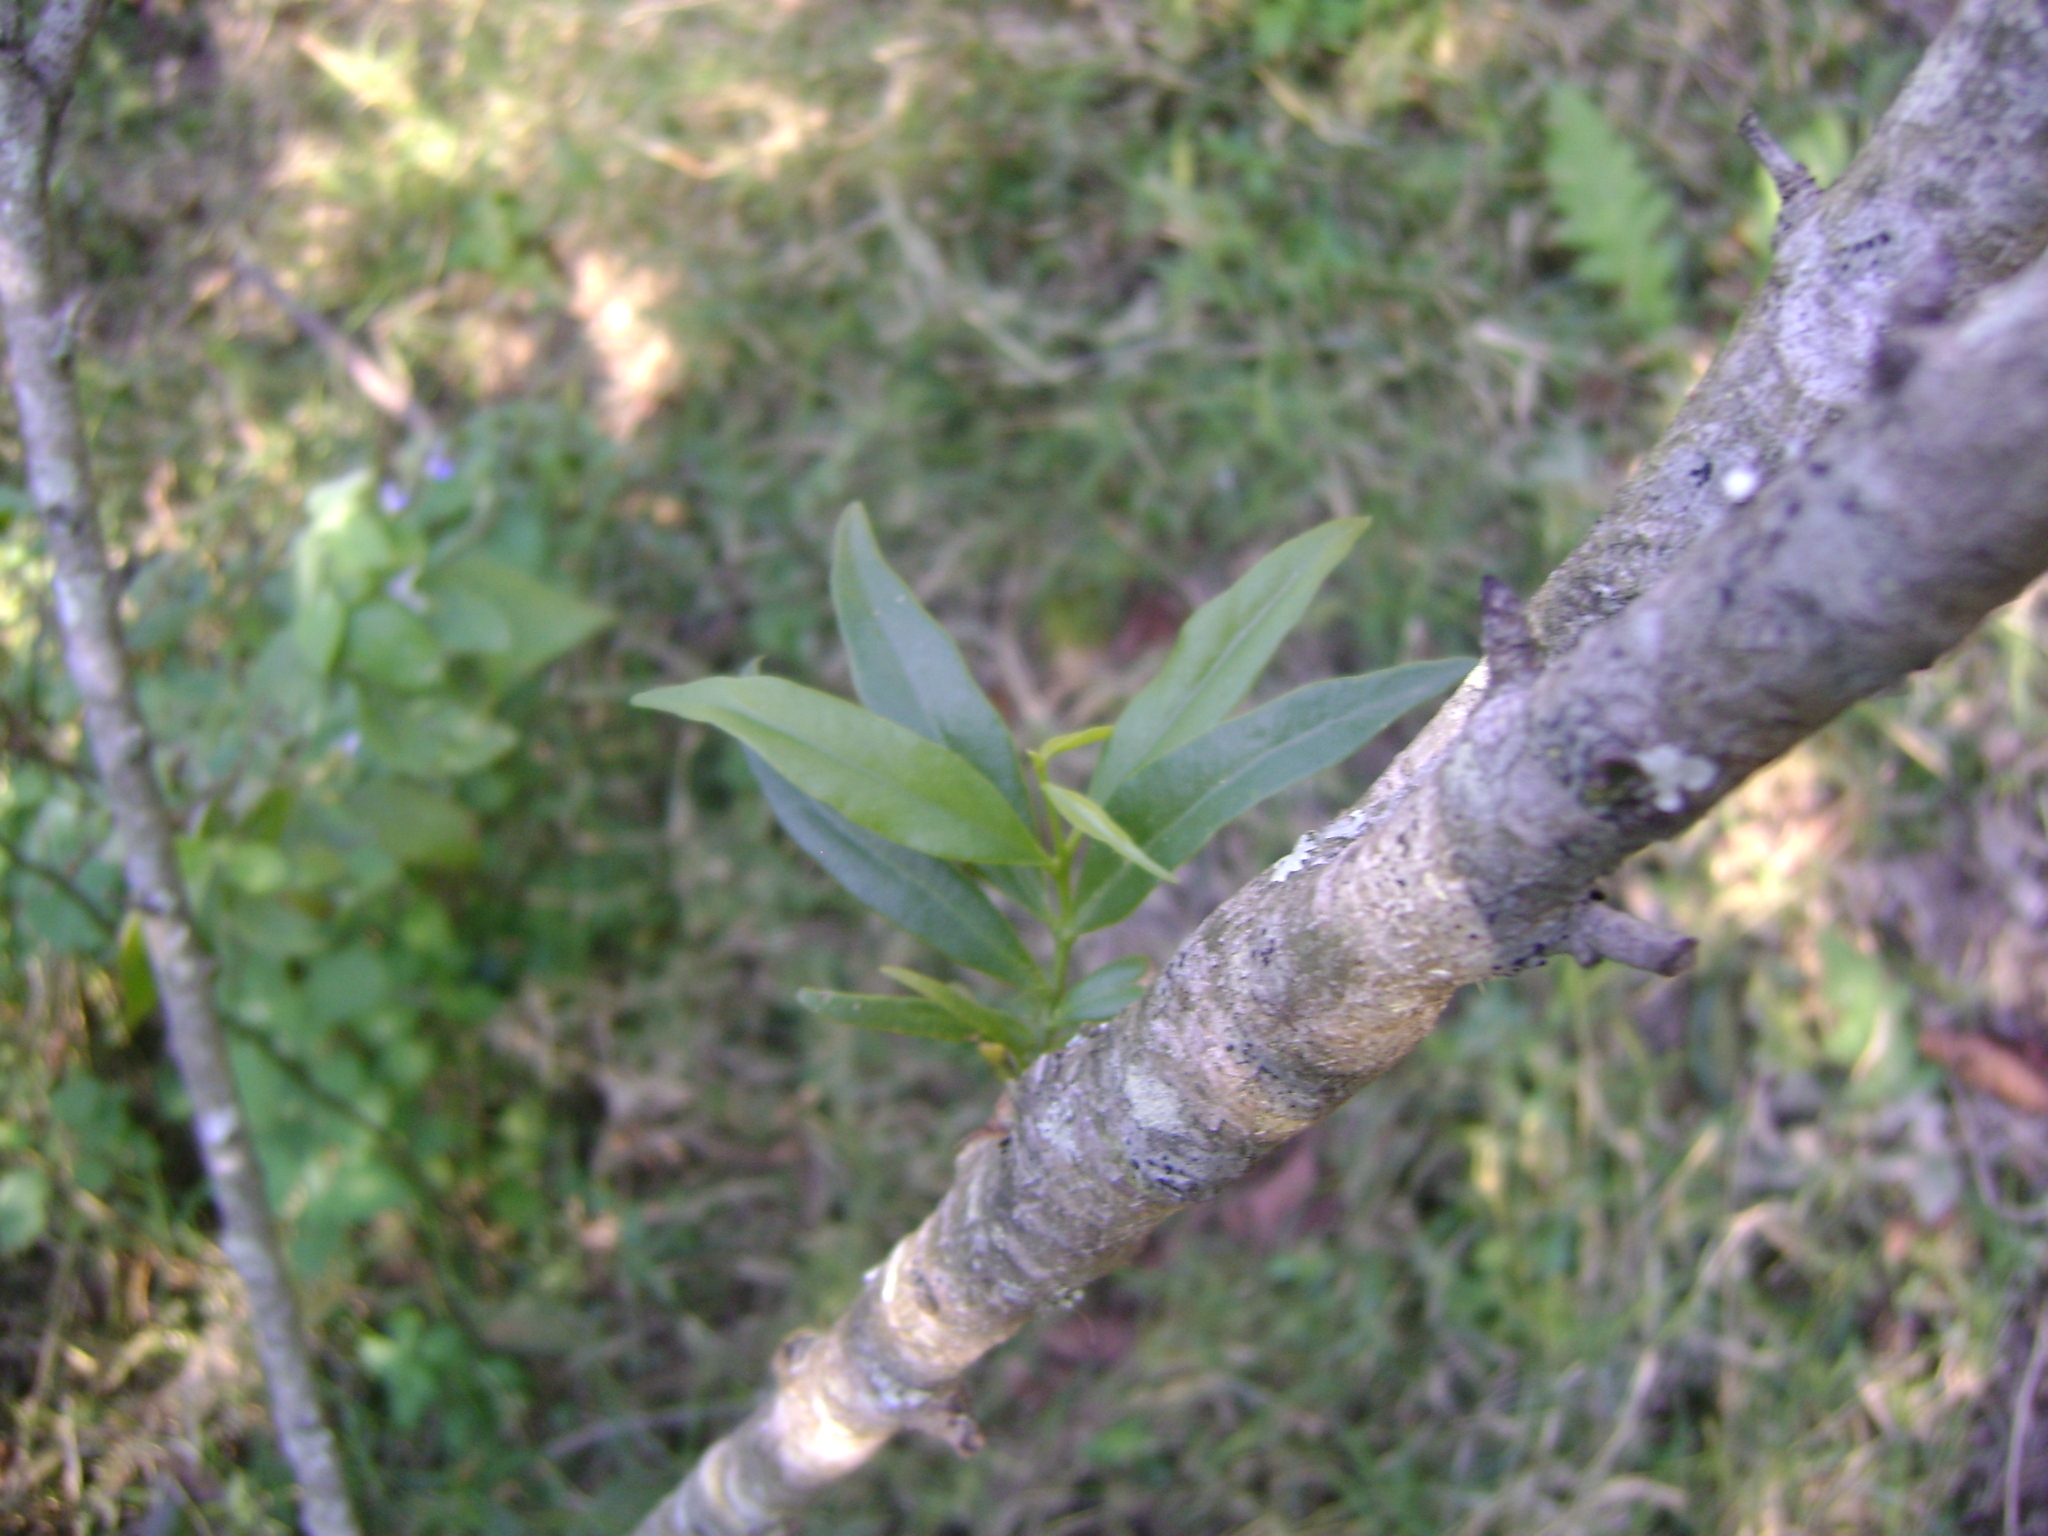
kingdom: Plantae
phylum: Tracheophyta
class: Magnoliopsida
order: Rosales
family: Rosaceae
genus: Prunus
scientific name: Prunus persica
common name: Peach
